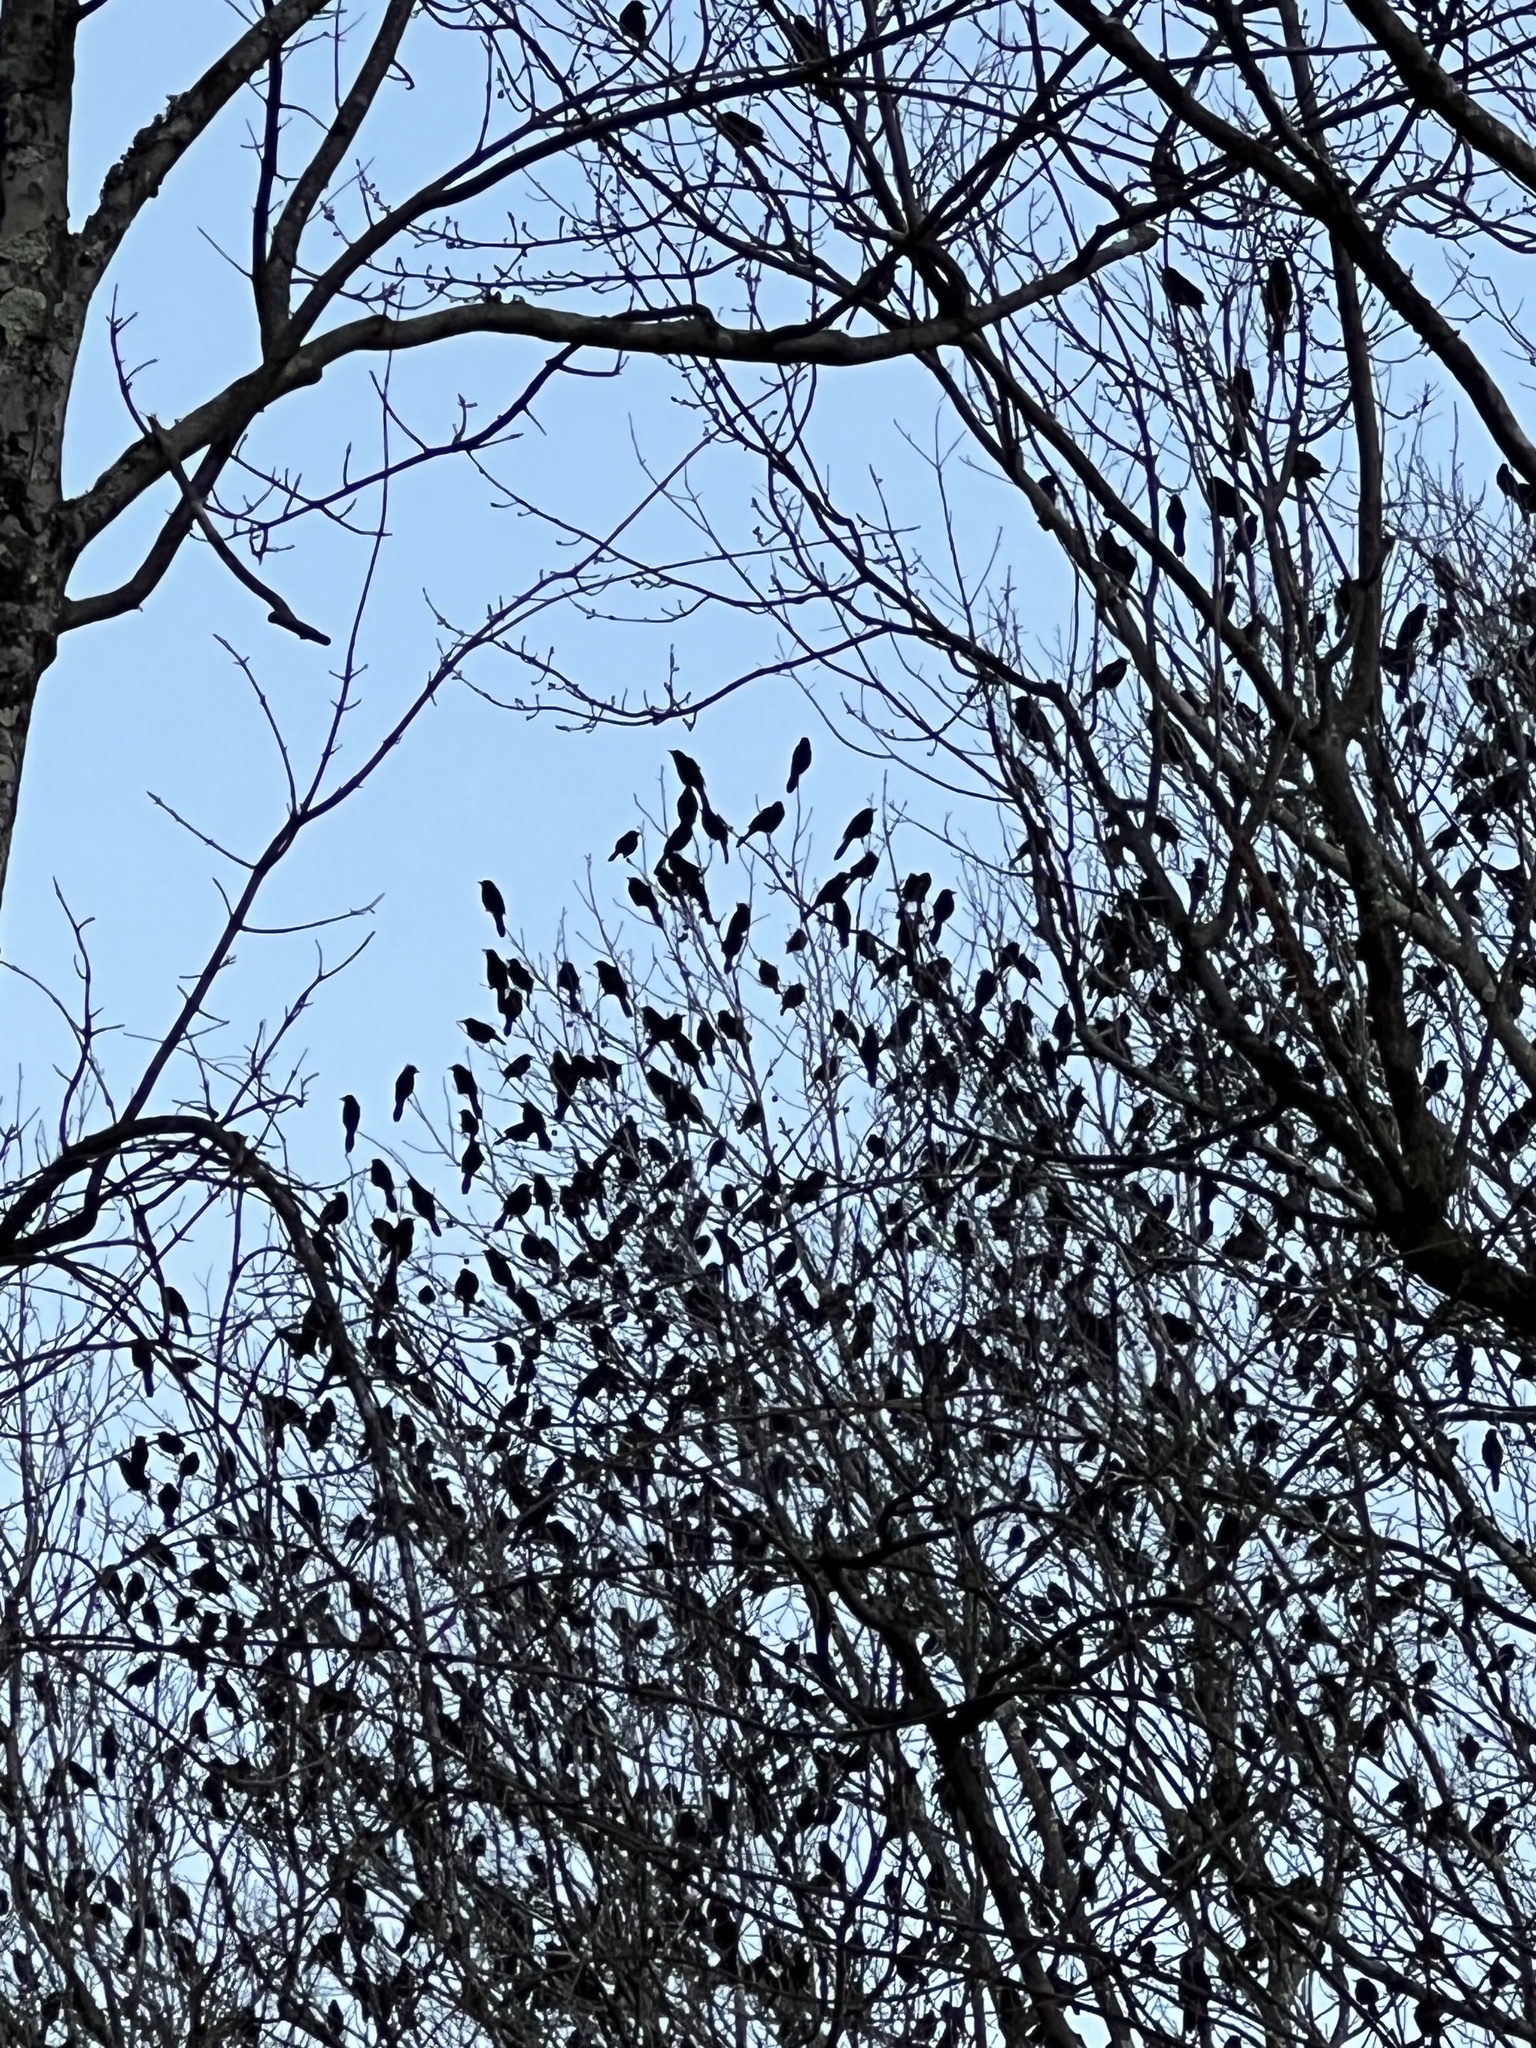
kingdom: Animalia
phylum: Chordata
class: Aves
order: Passeriformes
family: Icteridae
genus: Quiscalus
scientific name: Quiscalus quiscula
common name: Common grackle
